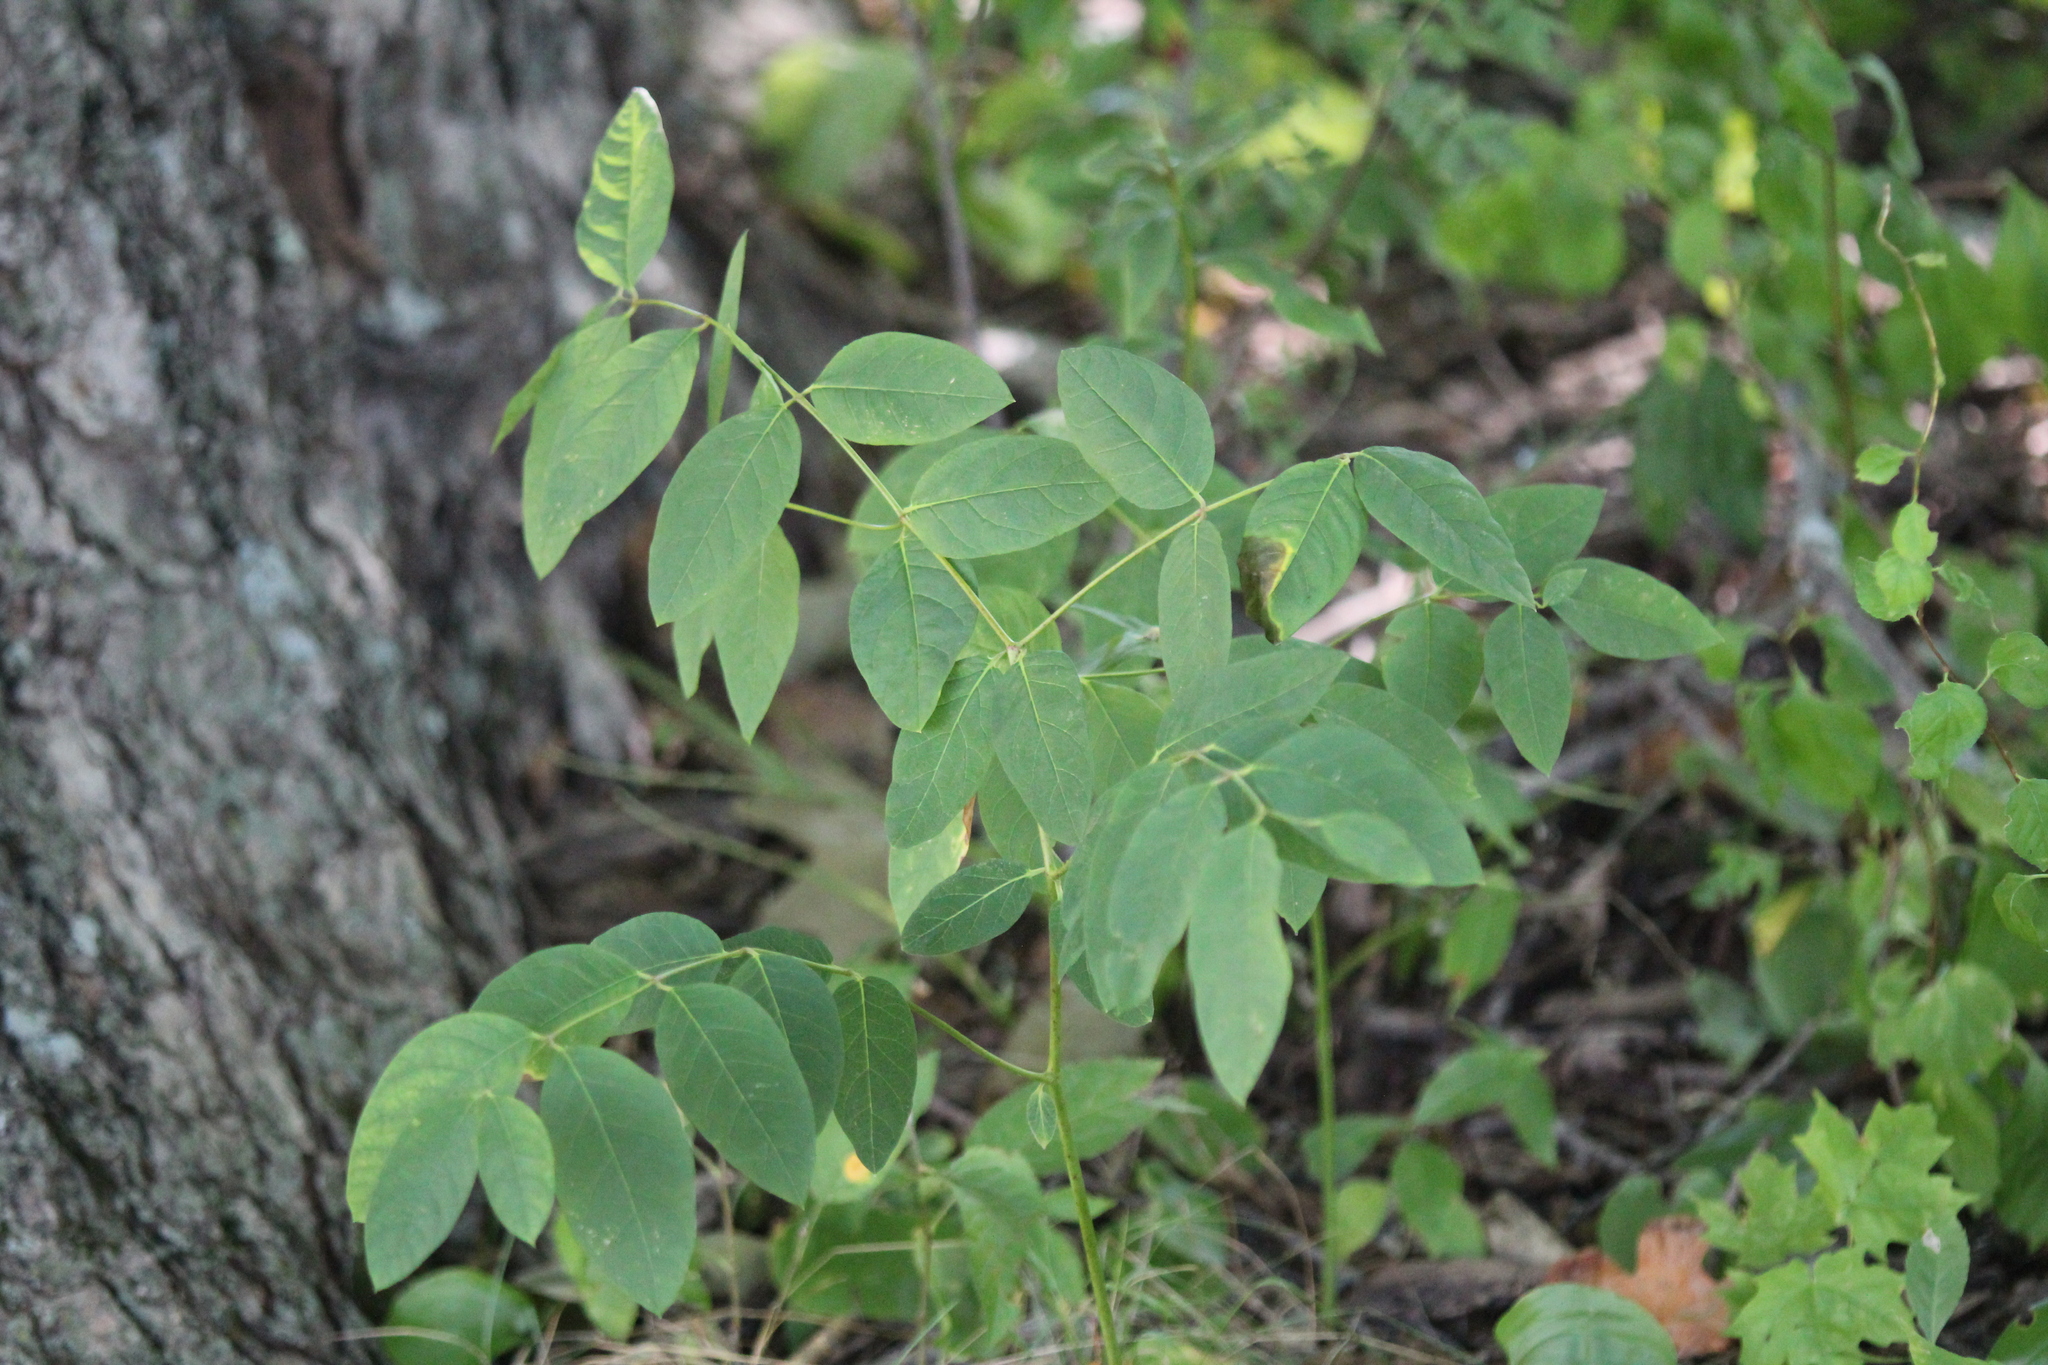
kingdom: Plantae
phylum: Tracheophyta
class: Magnoliopsida
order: Gentianales
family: Apocynaceae
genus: Apocynum
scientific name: Apocynum androsaemifolium
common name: Spreading dogbane
